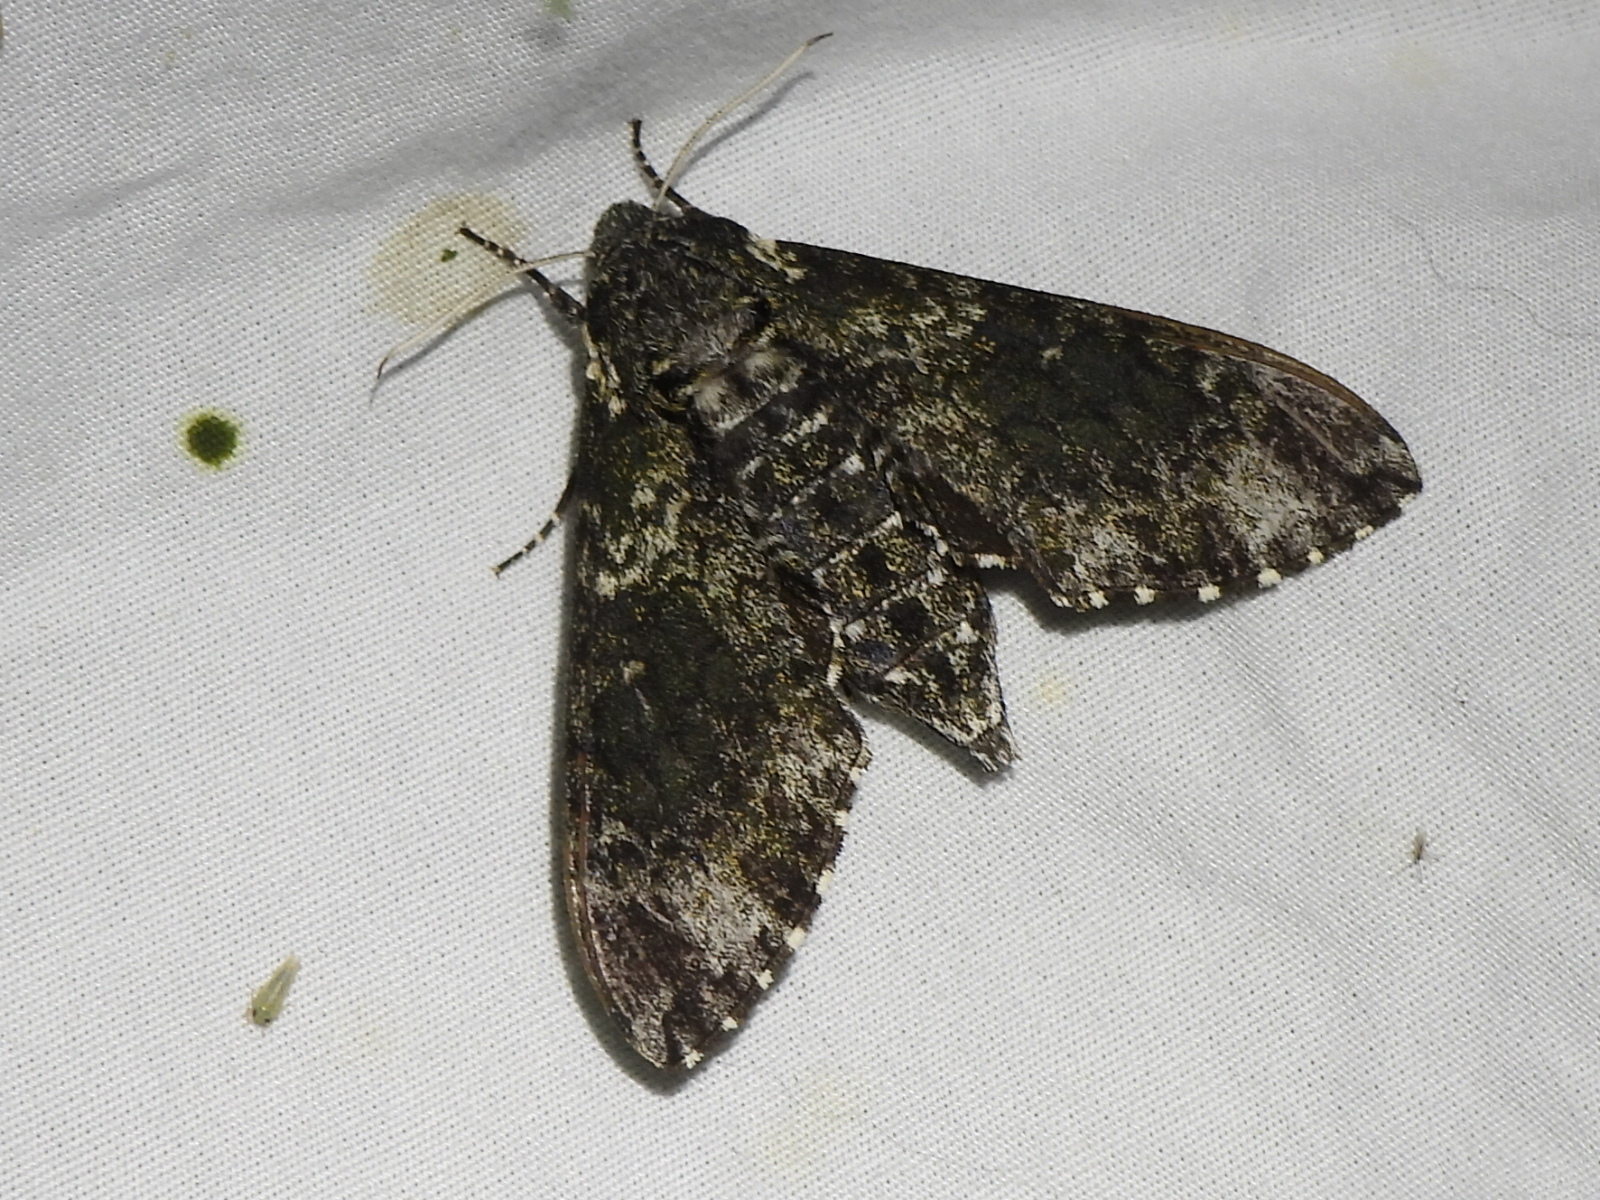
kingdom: Animalia
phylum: Arthropoda
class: Insecta
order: Lepidoptera
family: Sphingidae
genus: Dolba
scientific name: Dolba hyloeus
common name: Pawpaw sphinx
